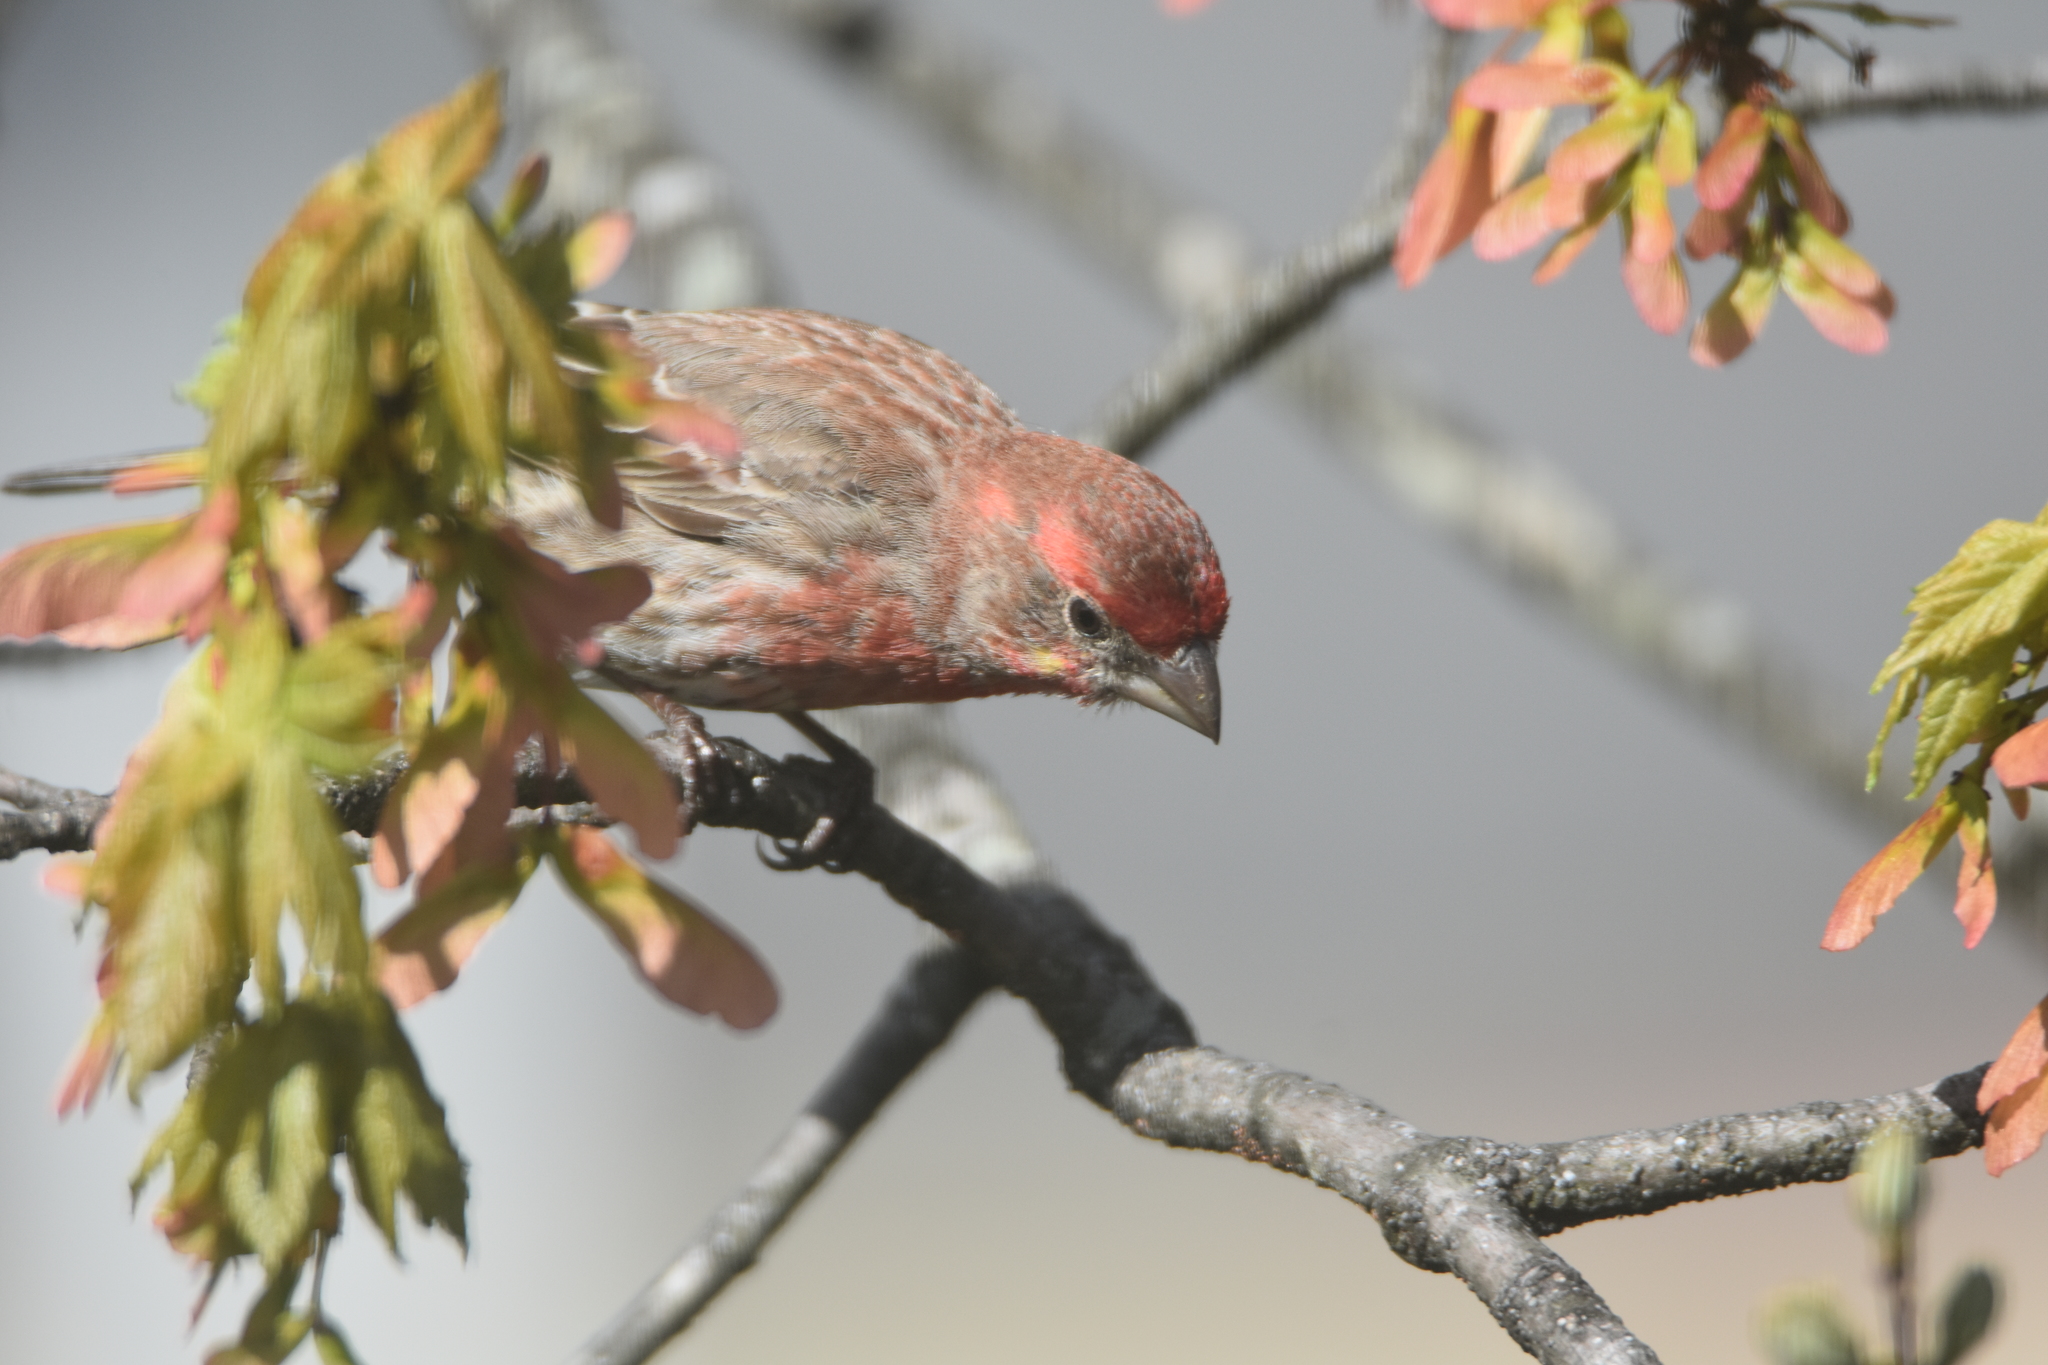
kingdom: Animalia
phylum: Chordata
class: Aves
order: Passeriformes
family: Fringillidae
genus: Haemorhous
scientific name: Haemorhous mexicanus
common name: House finch
